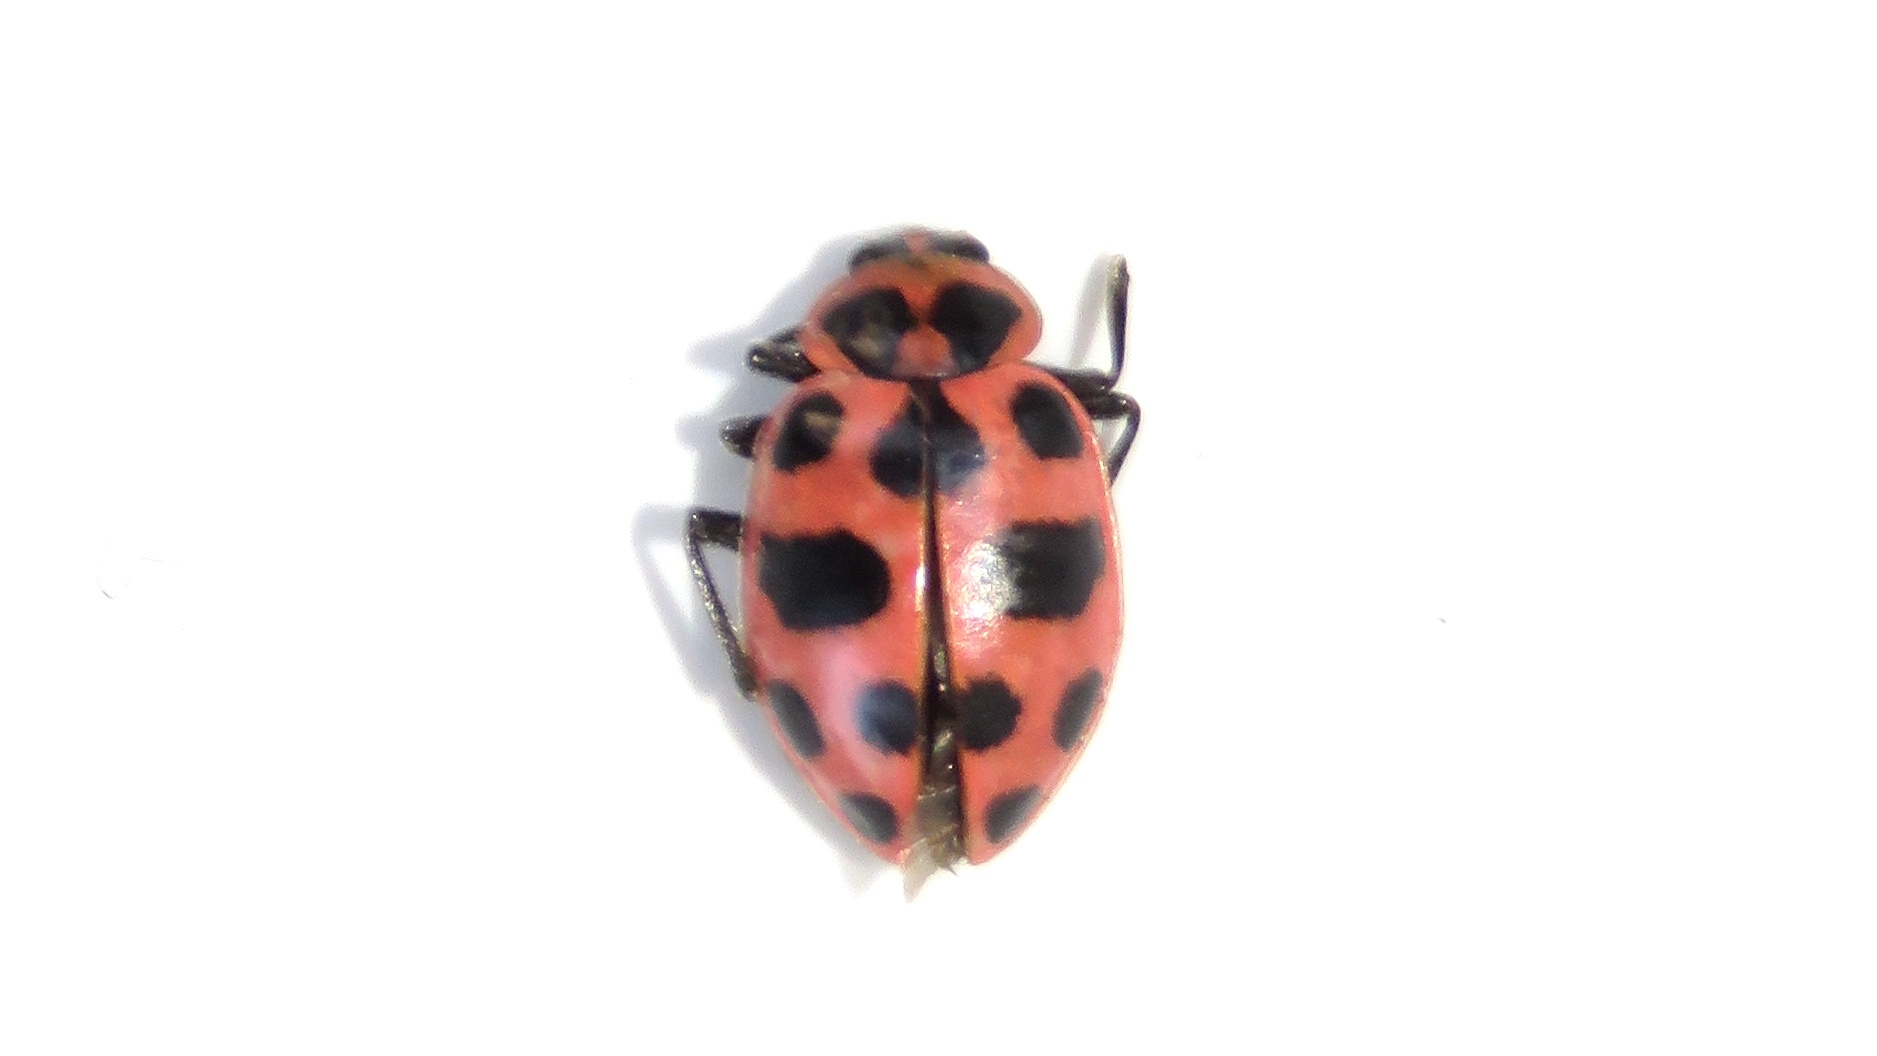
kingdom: Animalia
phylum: Arthropoda
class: Insecta
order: Coleoptera
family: Coccinellidae
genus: Coleomegilla
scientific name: Coleomegilla maculata
